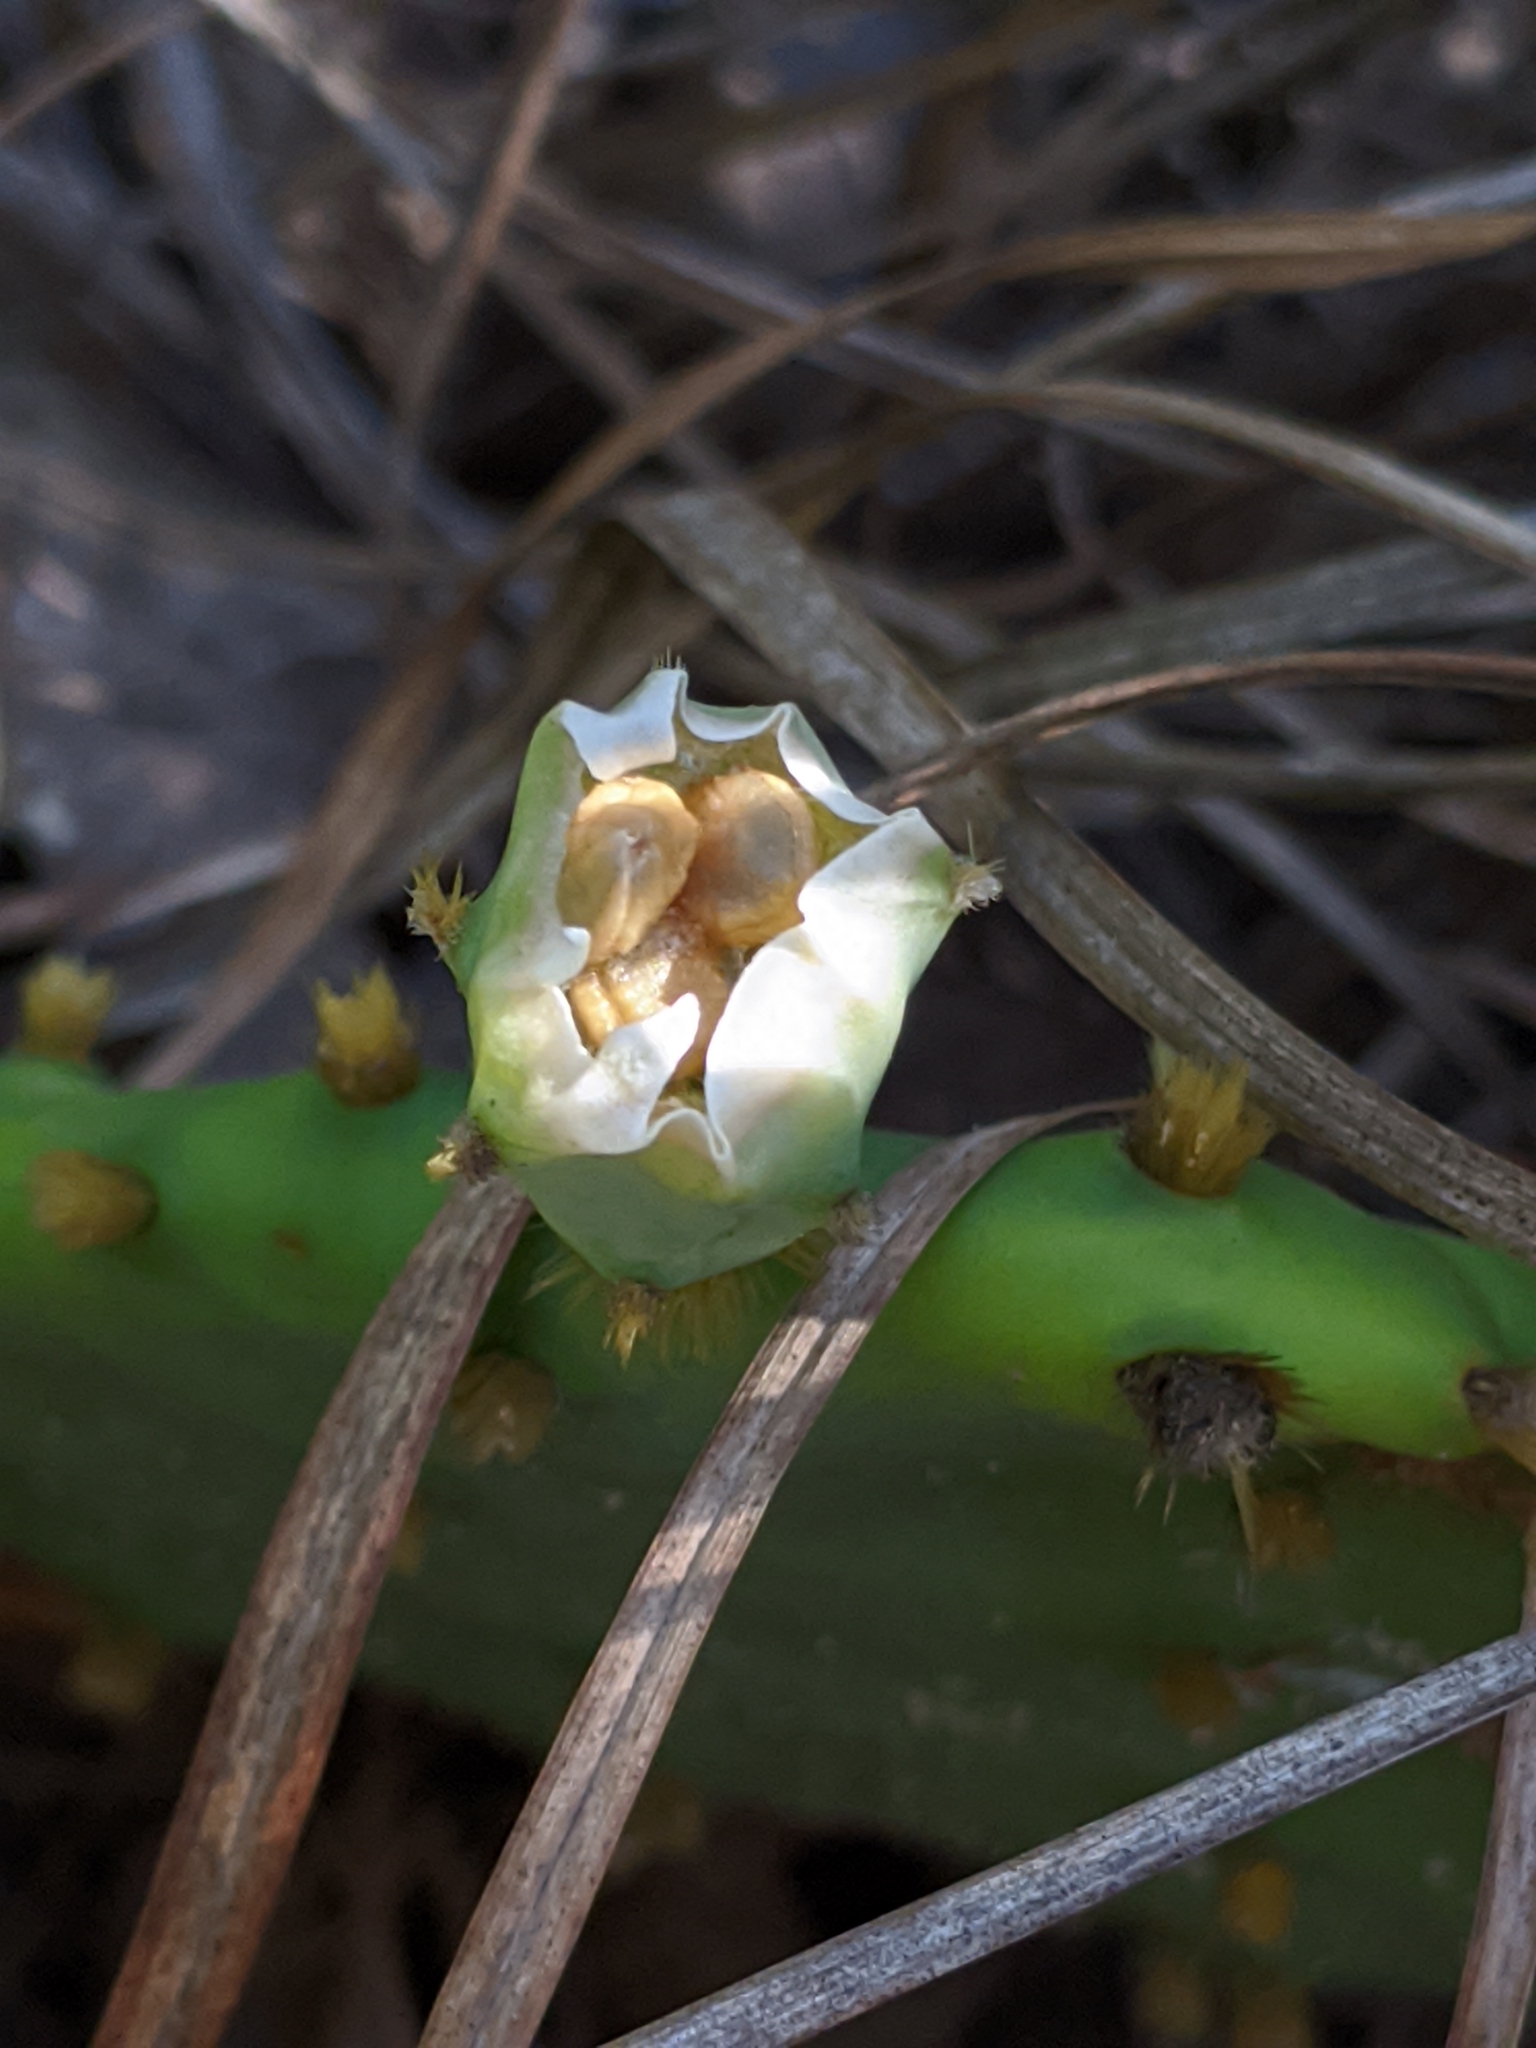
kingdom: Plantae
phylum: Tracheophyta
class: Magnoliopsida
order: Caryophyllales
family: Cactaceae
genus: Opuntia
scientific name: Opuntia macrorhiza
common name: Grassland pricklypear
